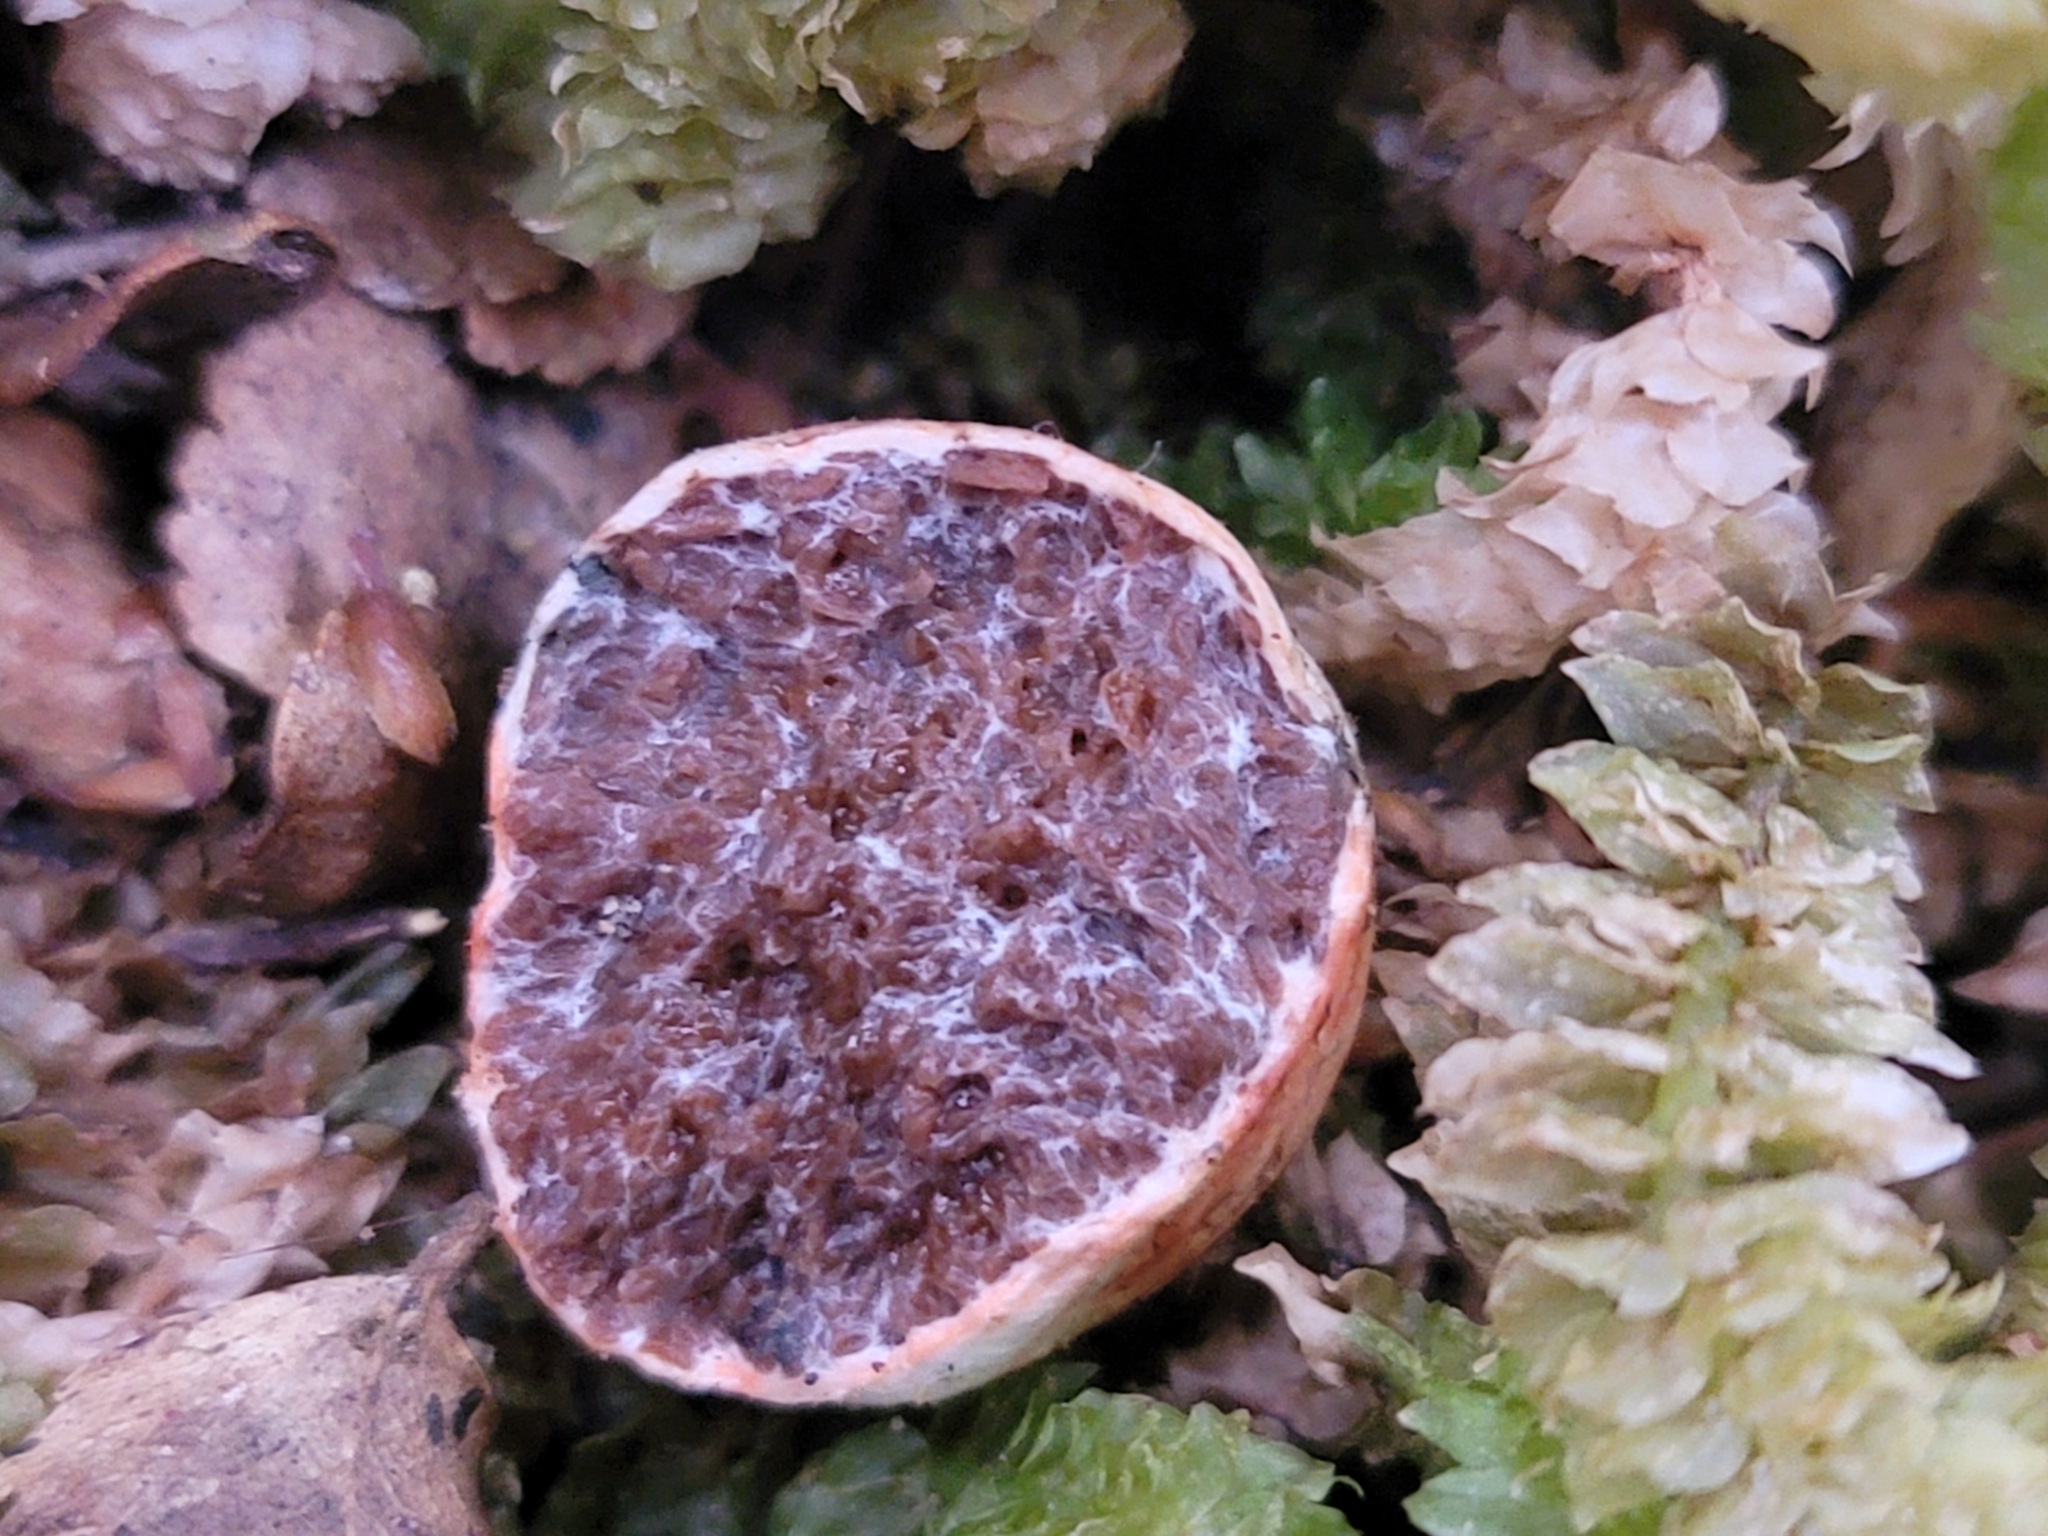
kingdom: Fungi
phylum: Basidiomycota
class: Agaricomycetes
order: Boletales
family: Boletaceae
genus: Octaviania
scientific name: Octaviania tasmanica
